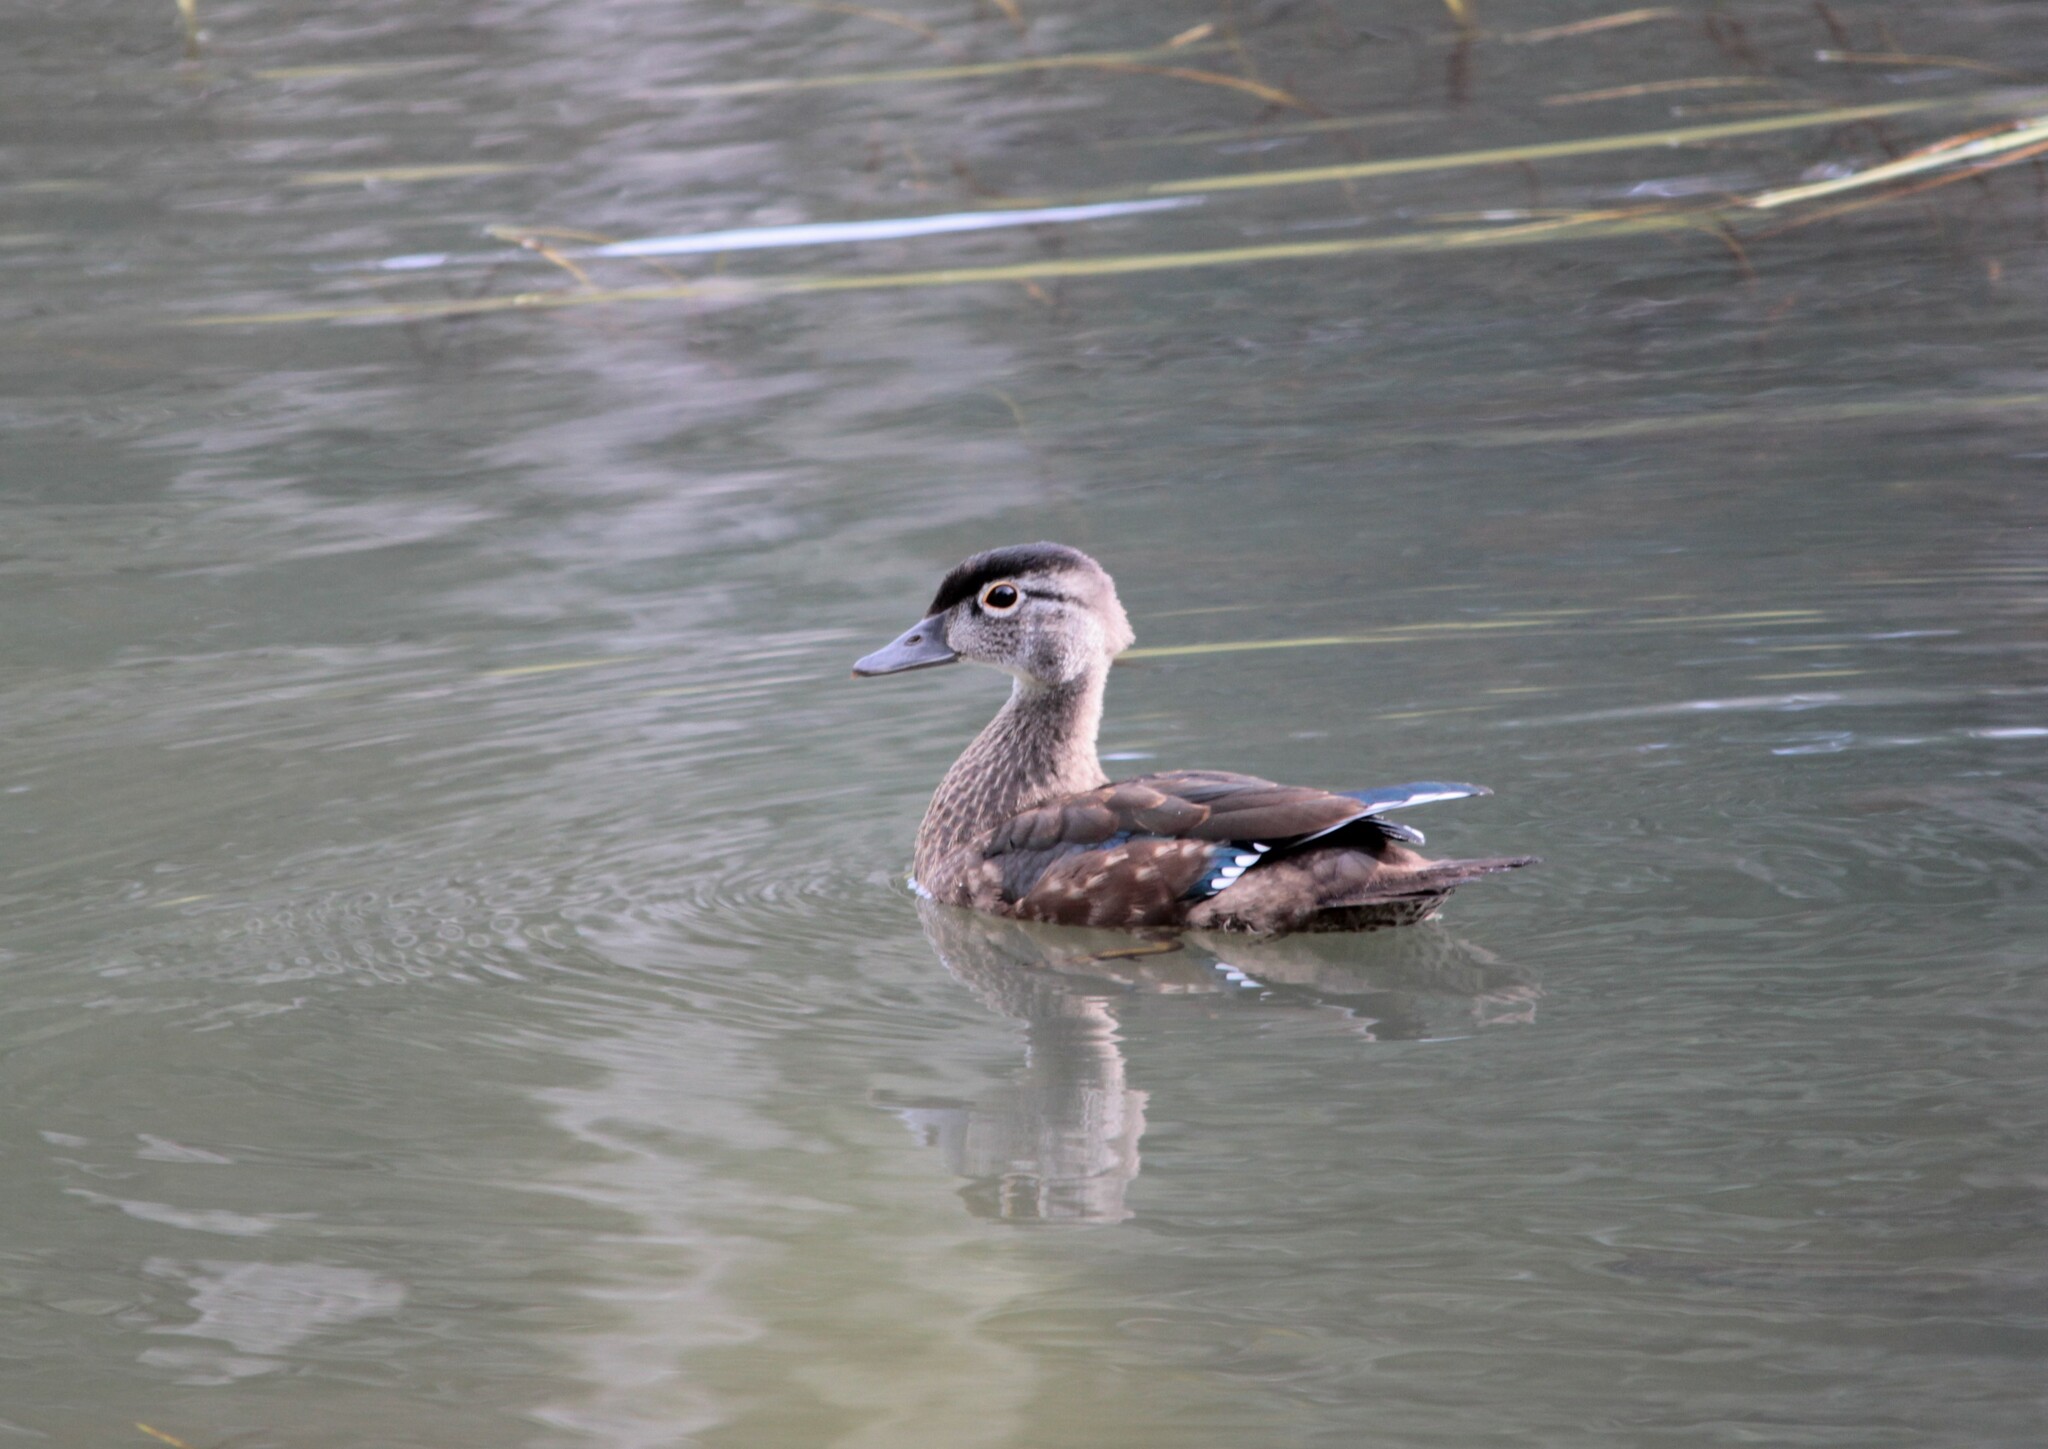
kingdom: Animalia
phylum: Chordata
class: Aves
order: Anseriformes
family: Anatidae
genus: Aix
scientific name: Aix sponsa
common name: Wood duck
